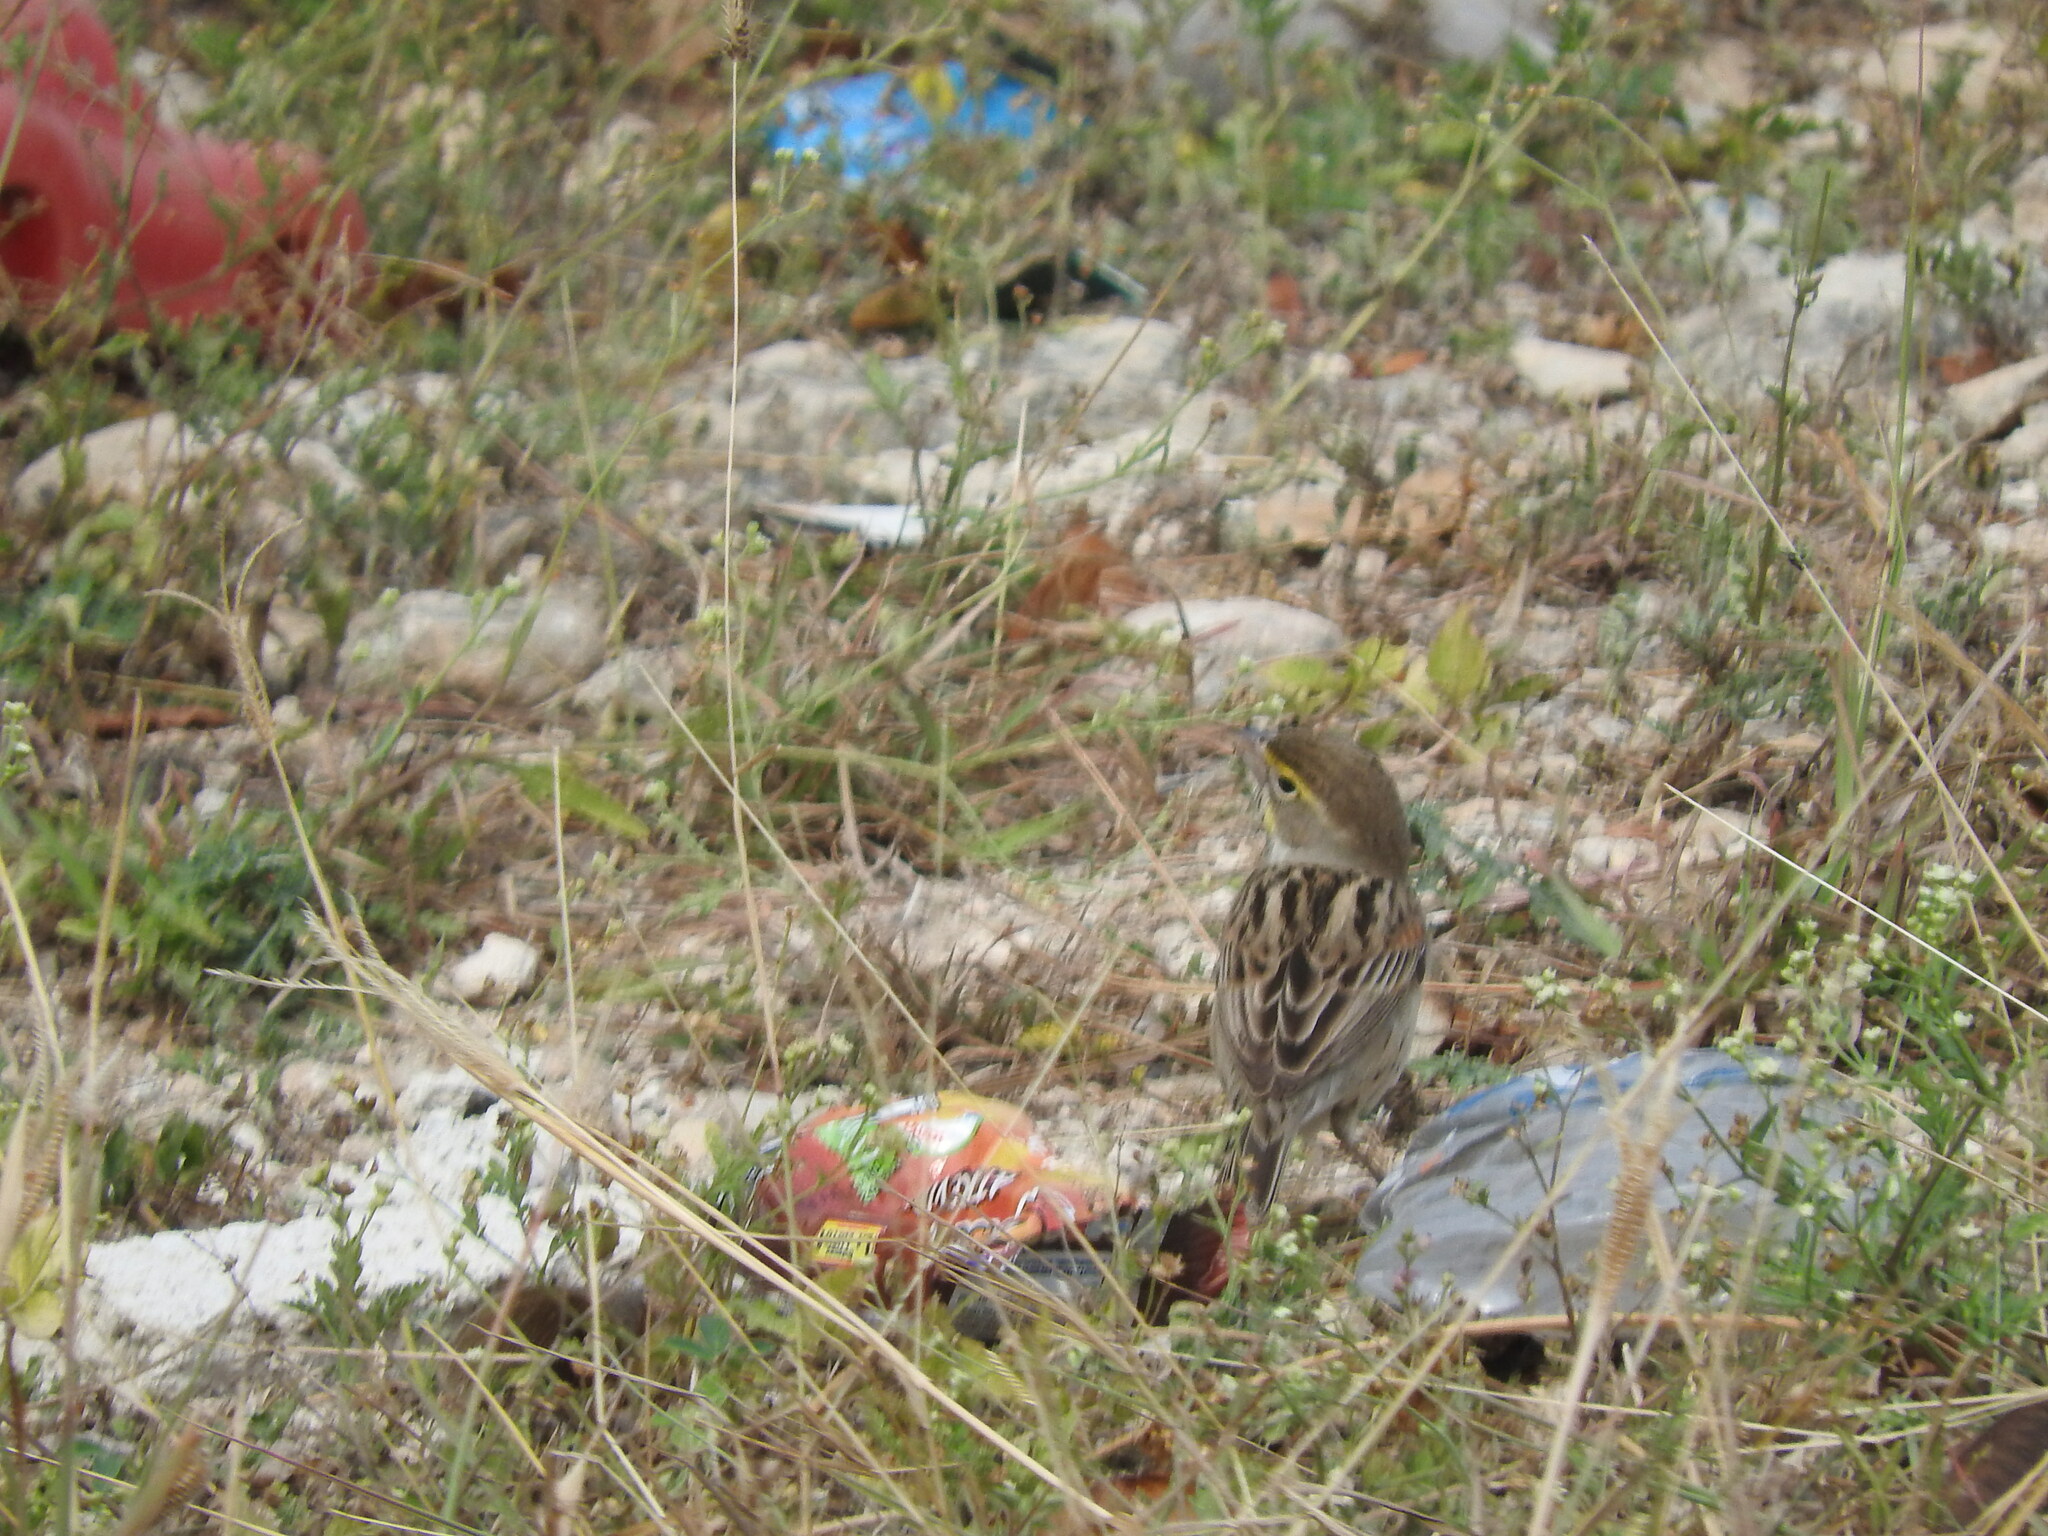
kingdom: Animalia
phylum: Chordata
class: Aves
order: Passeriformes
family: Cardinalidae
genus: Spiza
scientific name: Spiza americana
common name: Dickcissel
